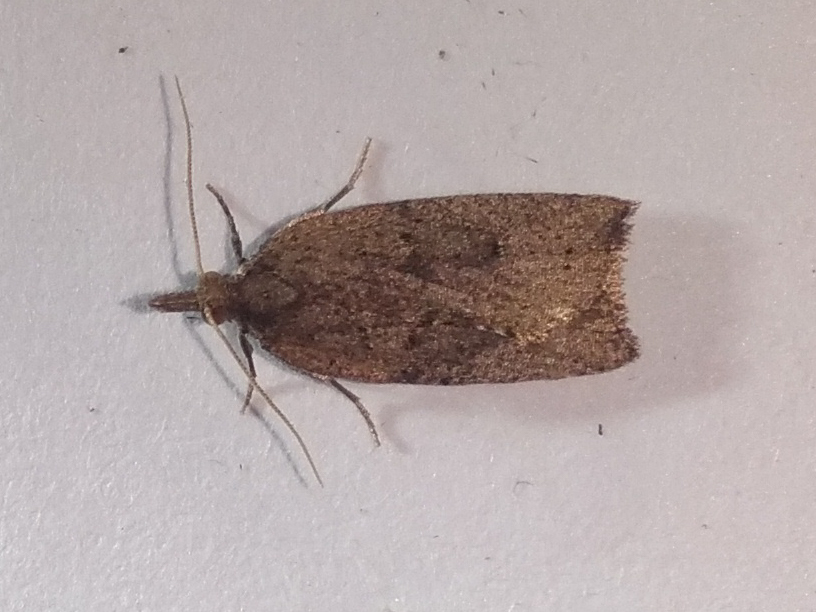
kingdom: Animalia
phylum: Arthropoda
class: Insecta
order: Lepidoptera
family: Tortricidae
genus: Planotortrix
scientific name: Planotortrix notophaea
